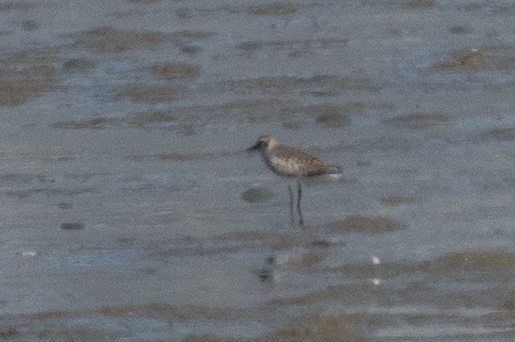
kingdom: Animalia
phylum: Chordata
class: Aves
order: Charadriiformes
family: Charadriidae
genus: Pluvialis
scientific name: Pluvialis squatarola
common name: Grey plover
